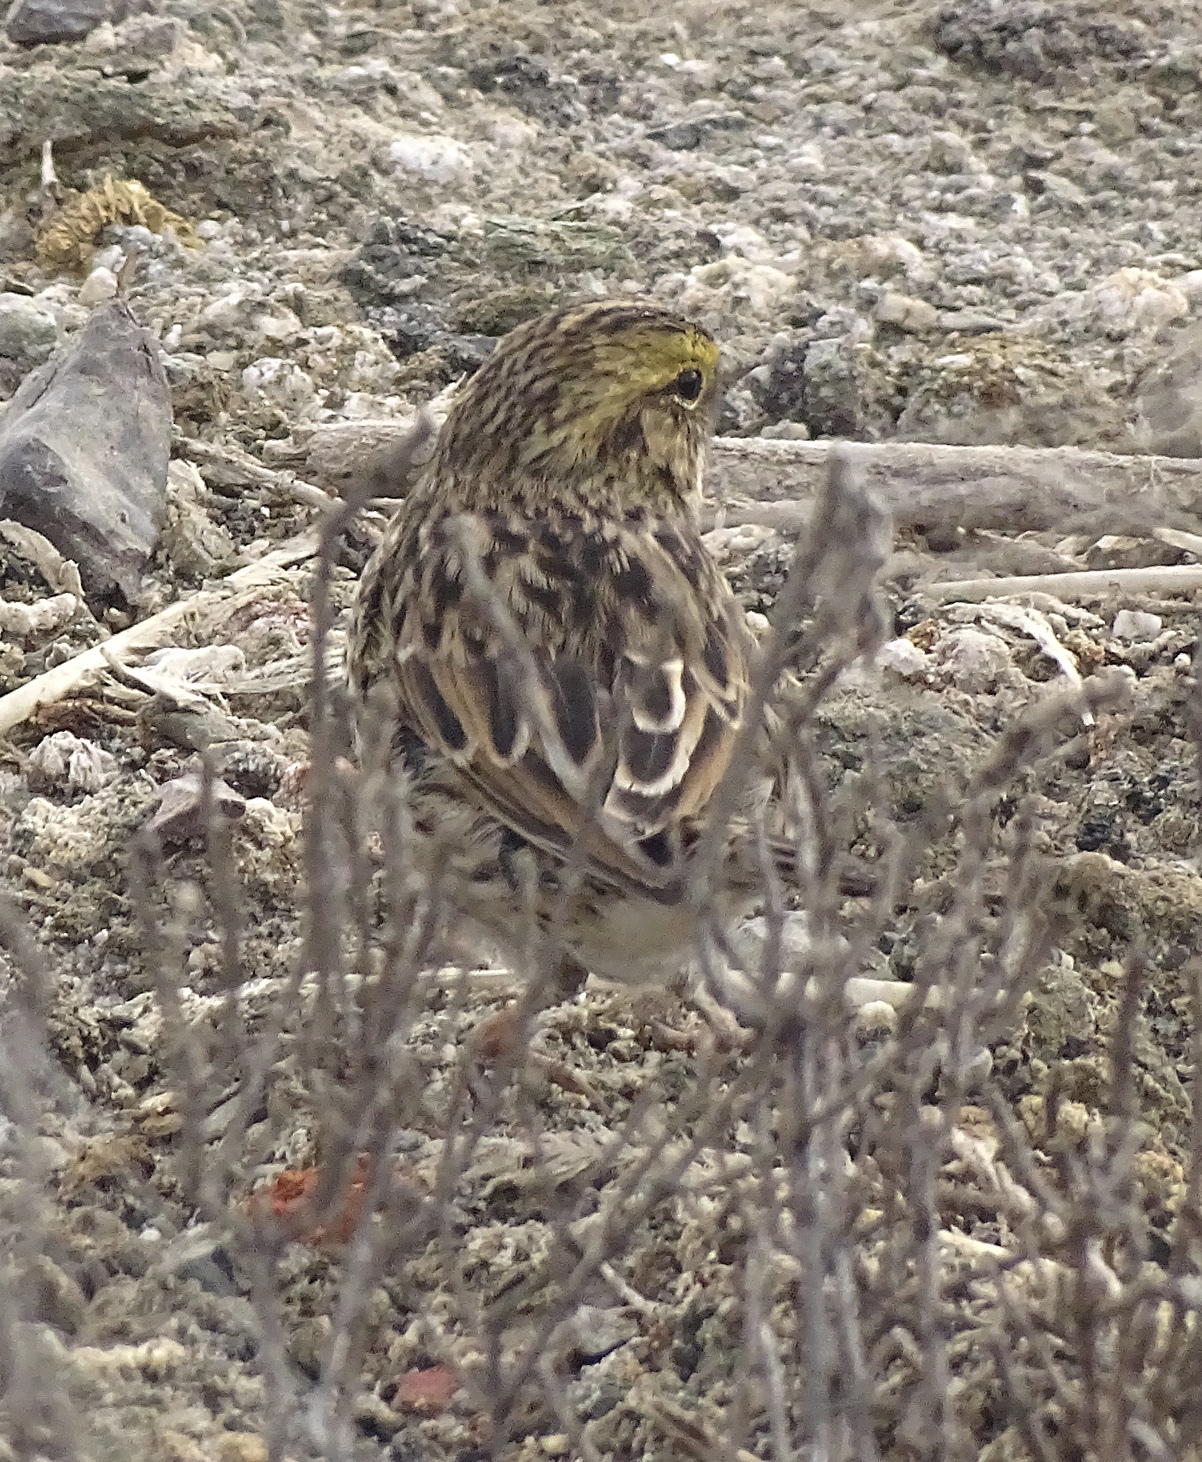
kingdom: Animalia
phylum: Chordata
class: Aves
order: Passeriformes
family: Passerellidae
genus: Passerculus
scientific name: Passerculus sandwichensis
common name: Savannah sparrow
